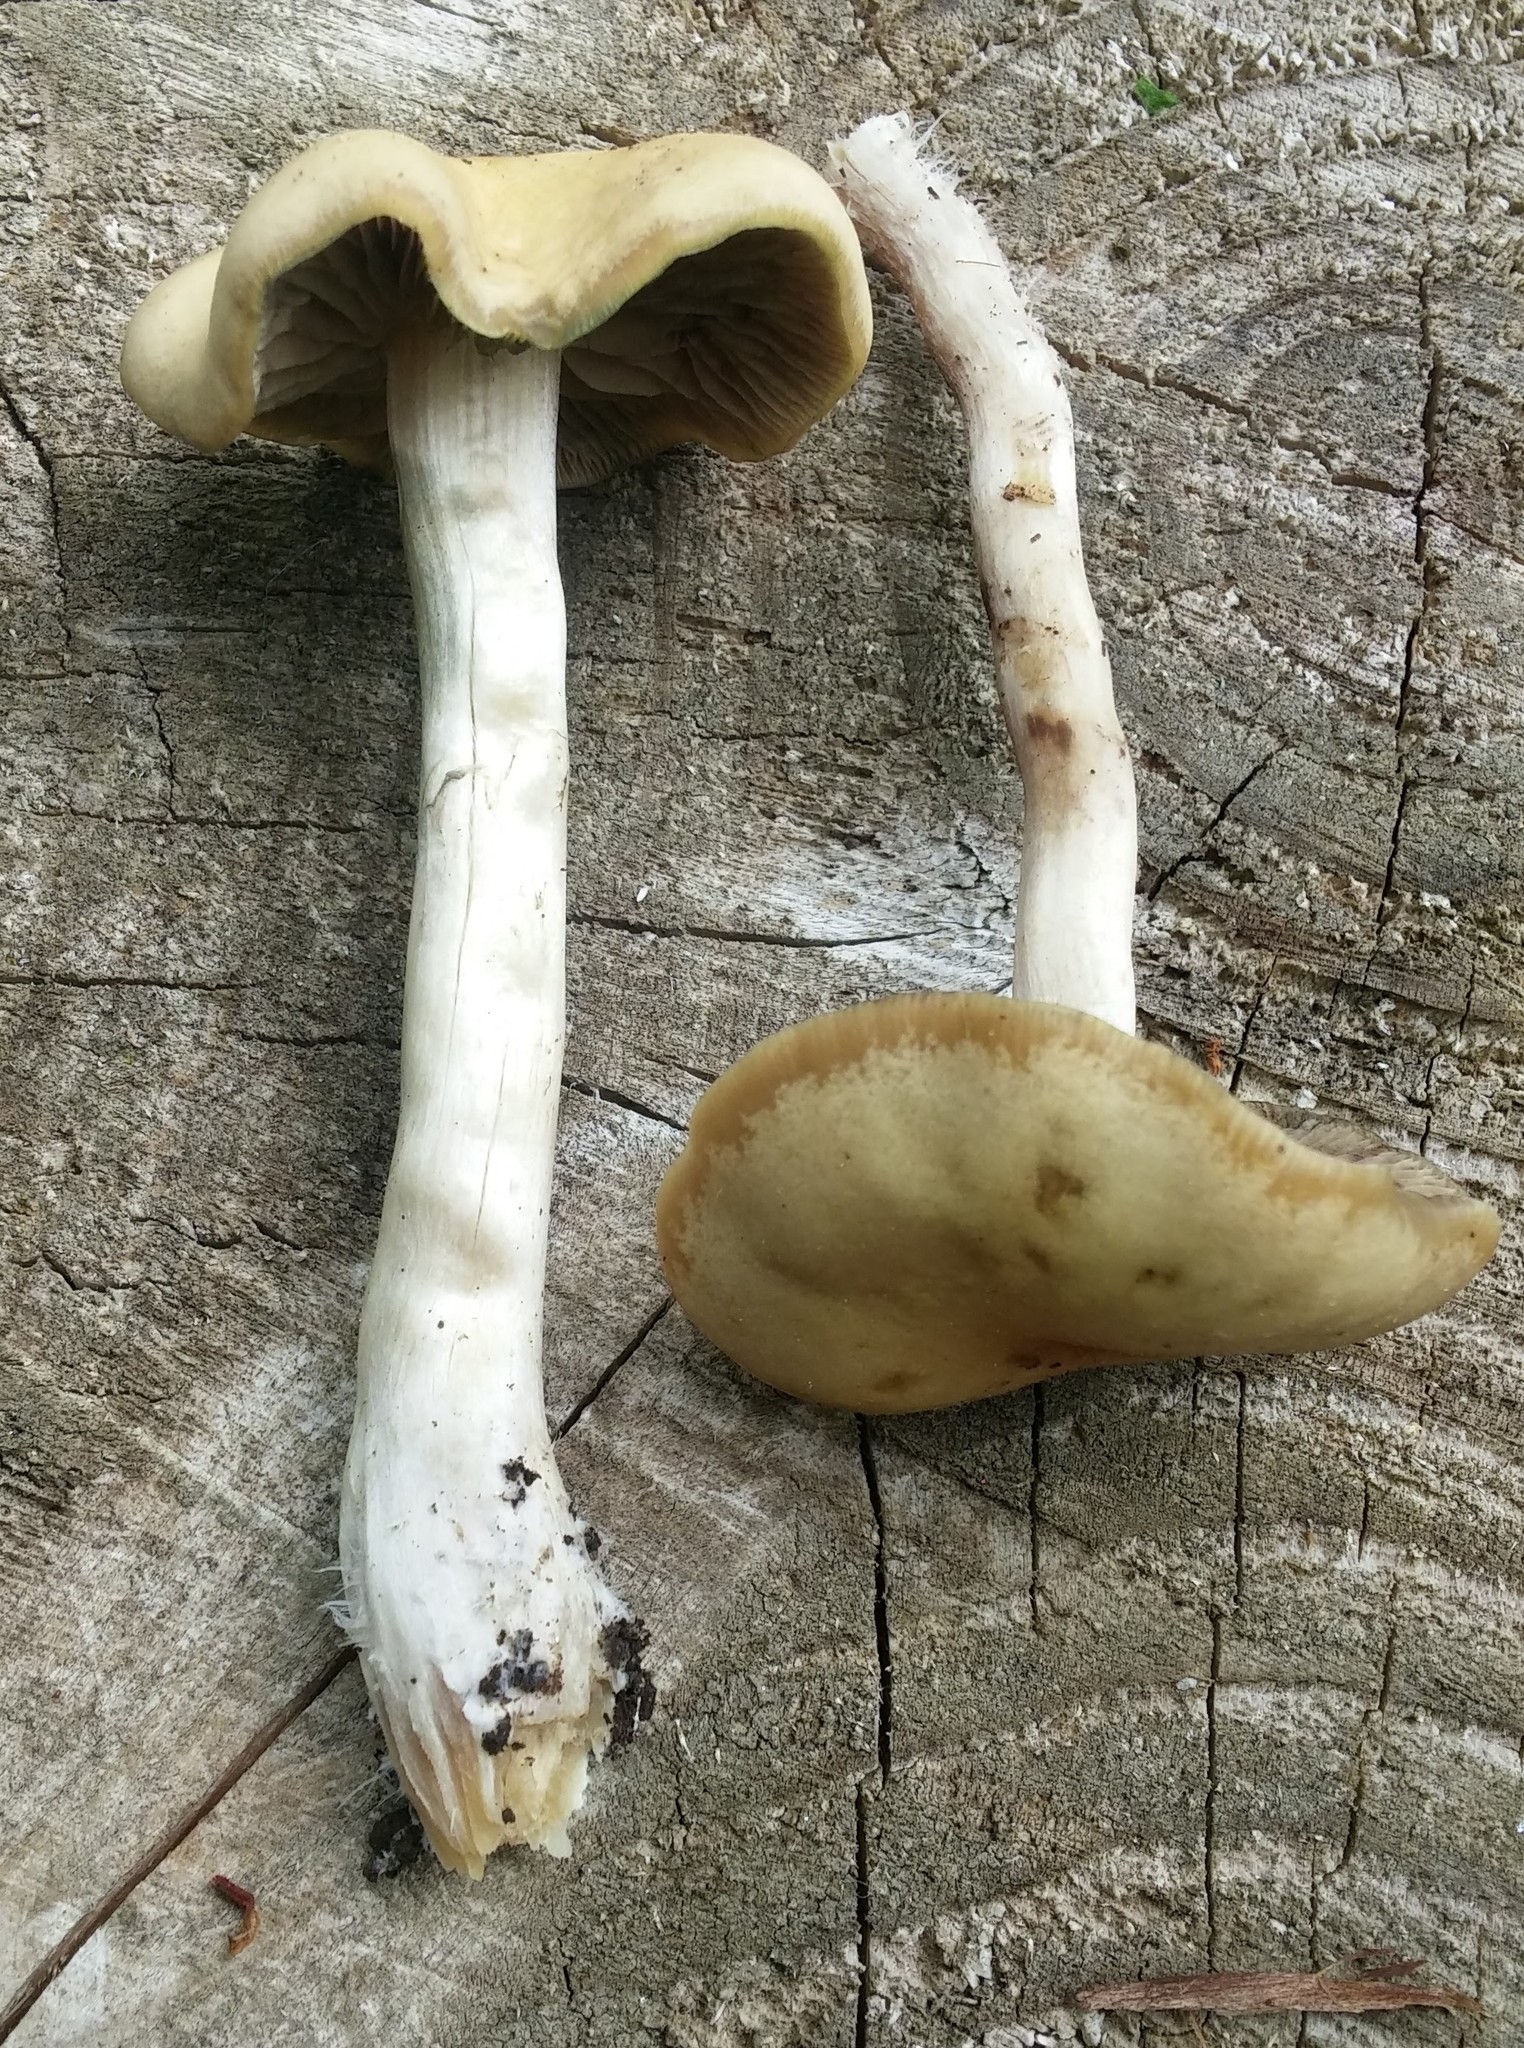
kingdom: Fungi
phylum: Basidiomycota
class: Agaricomycetes
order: Agaricales
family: Hymenogastraceae
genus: Psilocybe
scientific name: Psilocybe ovoideocystidiata
